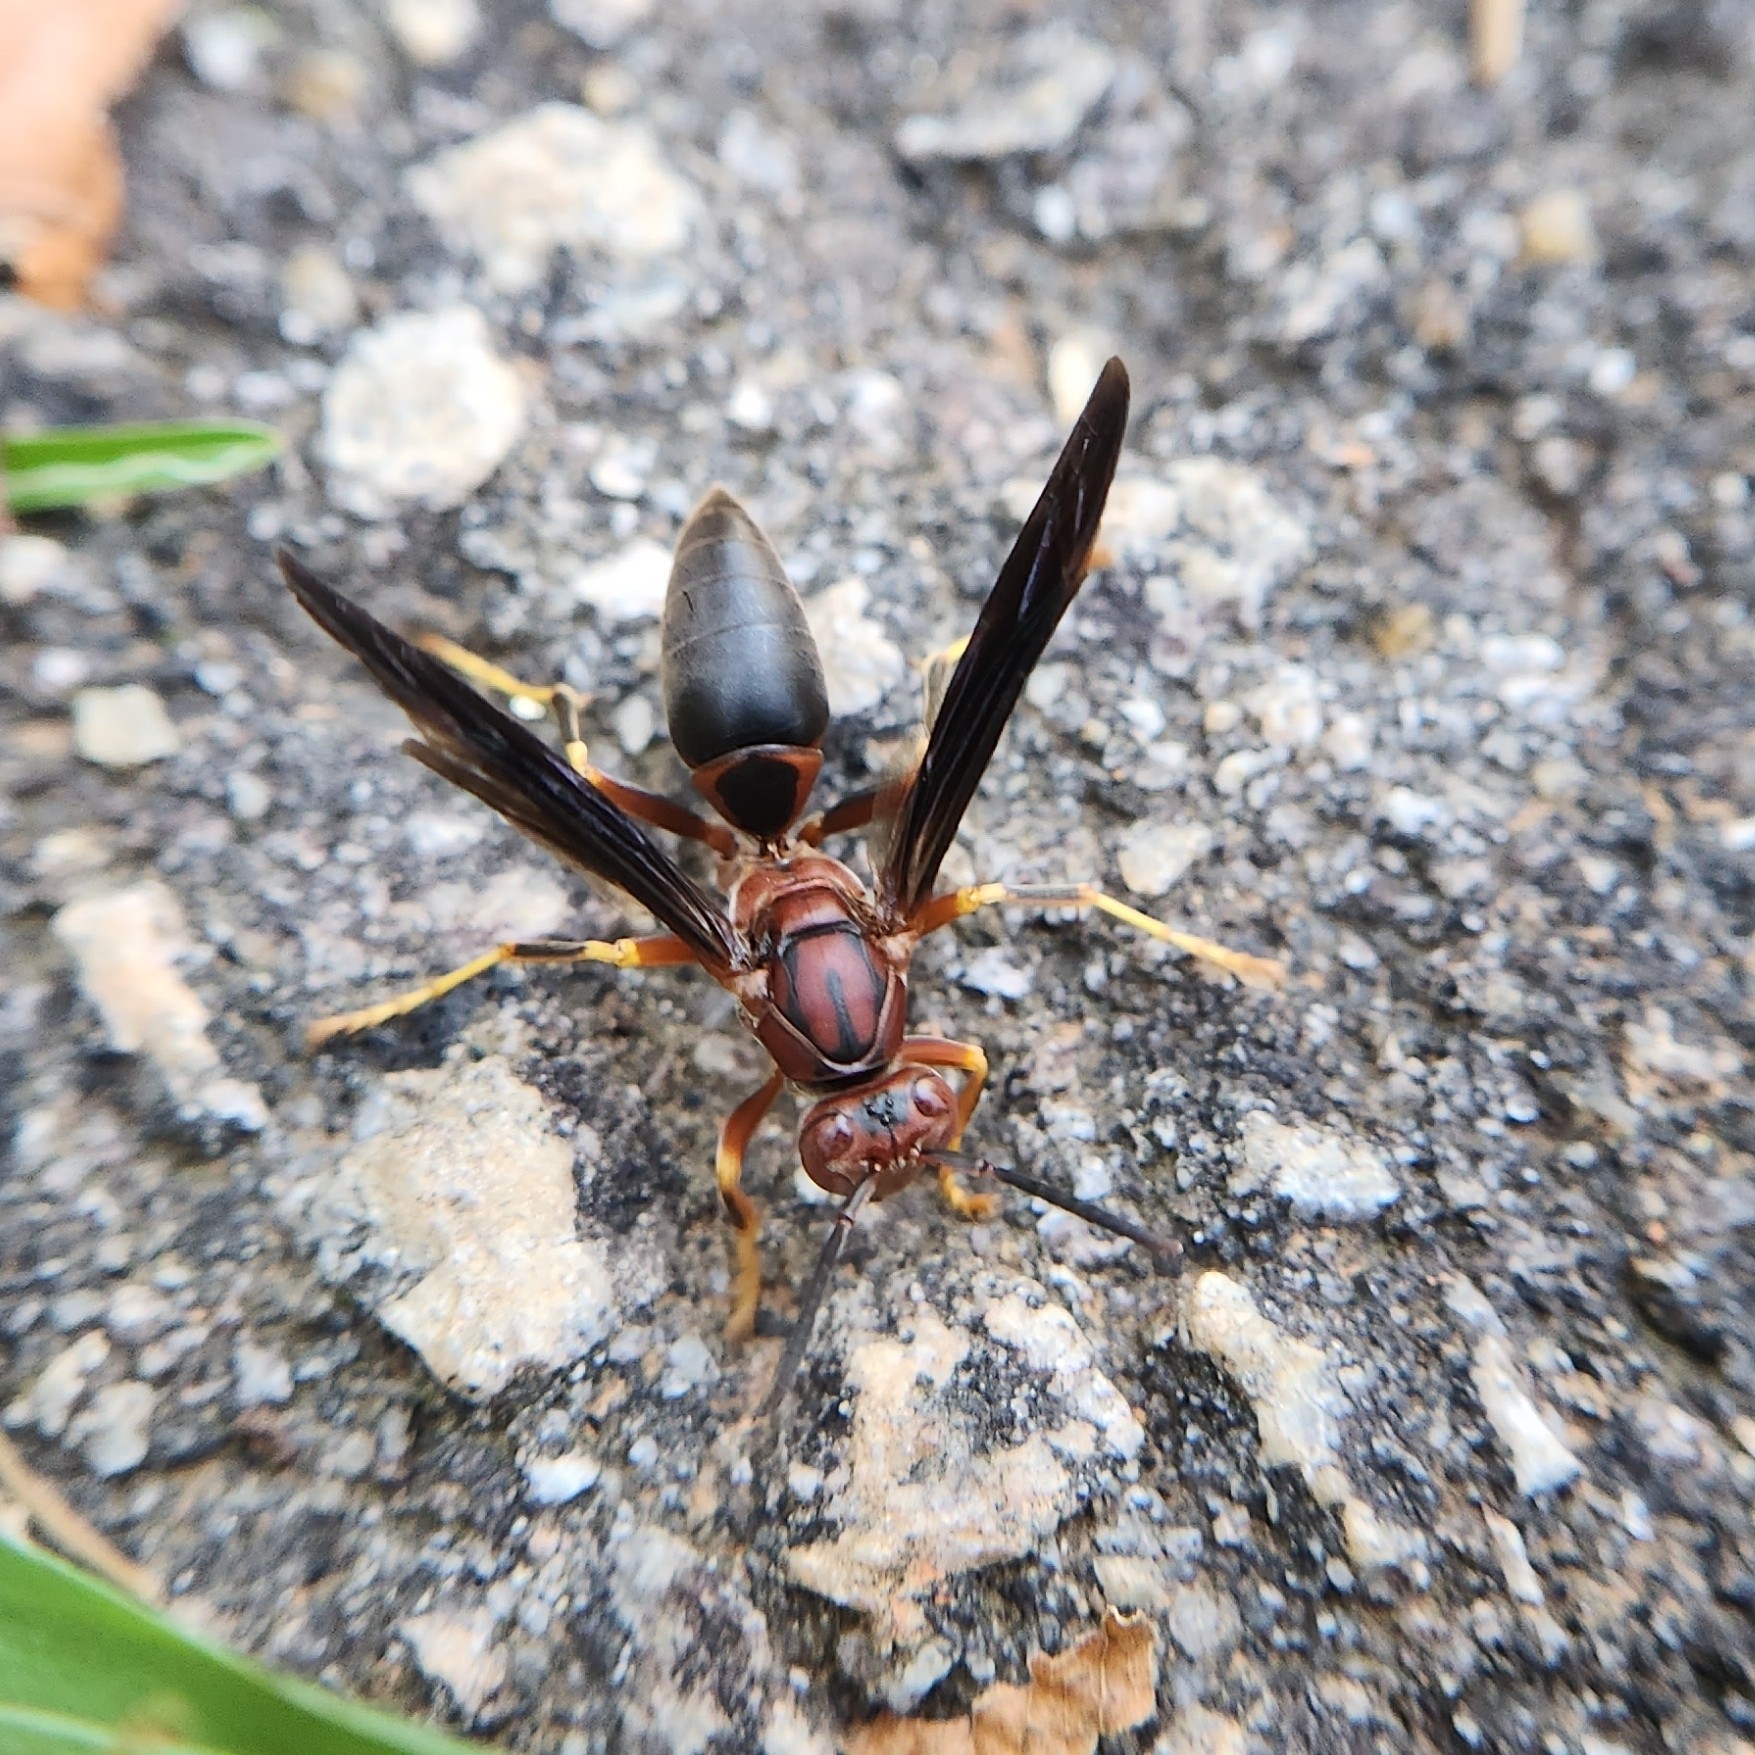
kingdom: Animalia
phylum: Arthropoda
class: Insecta
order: Hymenoptera
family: Eumenidae
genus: Polistes
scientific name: Polistes metricus
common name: Metric paper wasp
